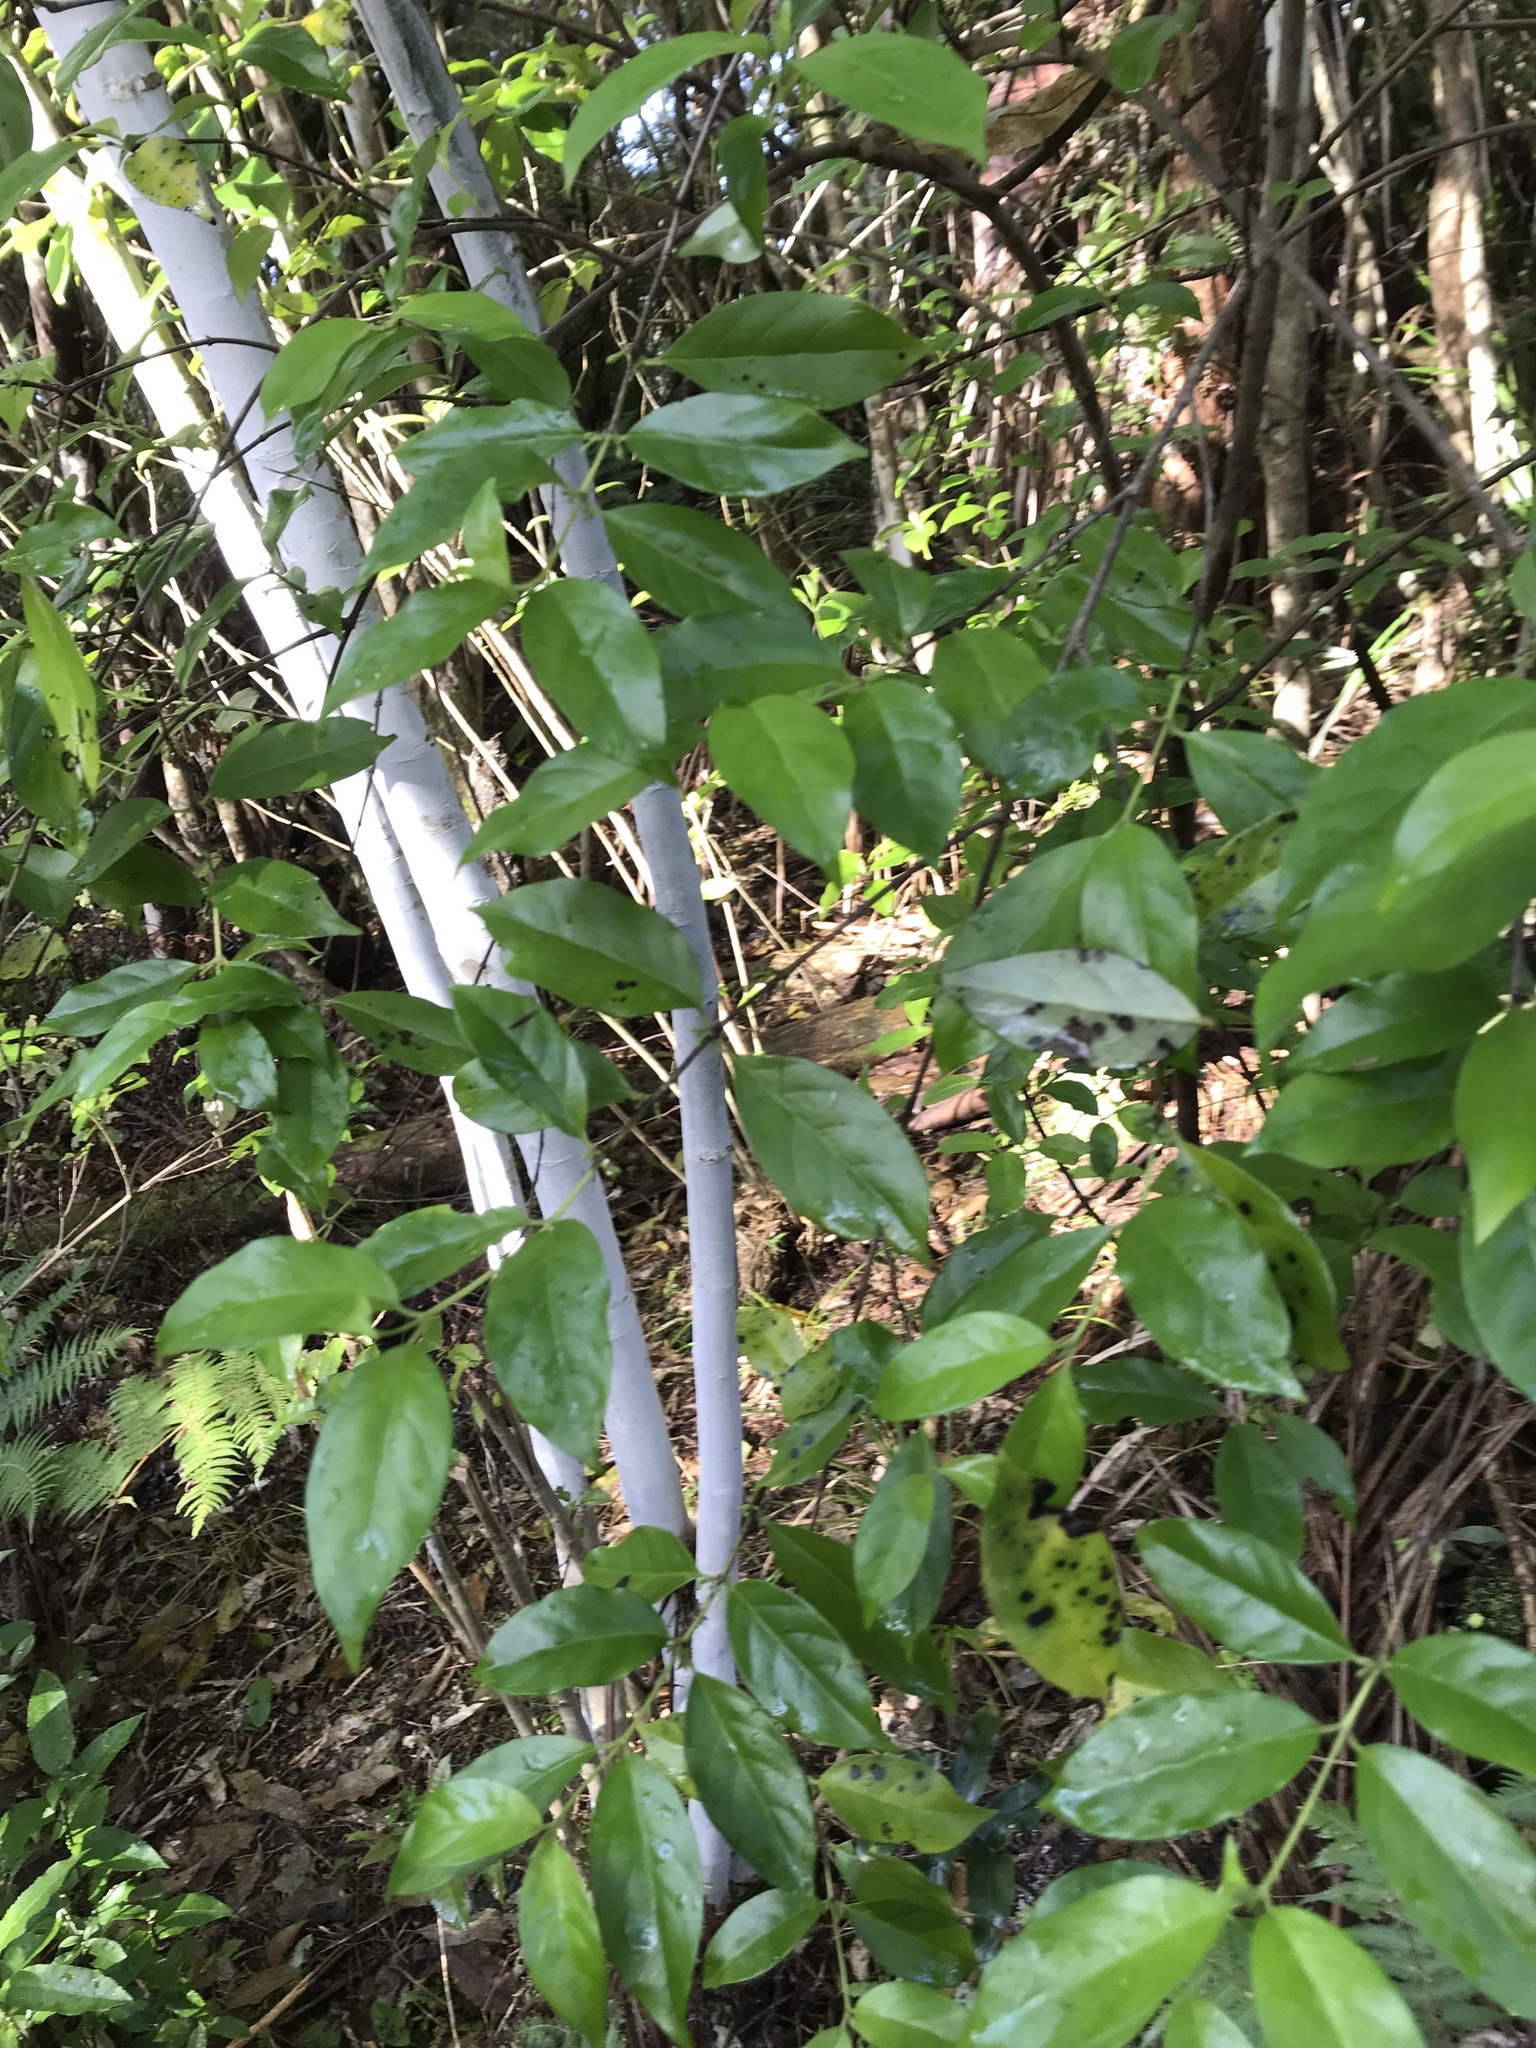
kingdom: Plantae
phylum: Tracheophyta
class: Magnoliopsida
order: Gentianales
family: Loganiaceae
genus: Geniostoma
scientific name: Geniostoma ligustrifolium
